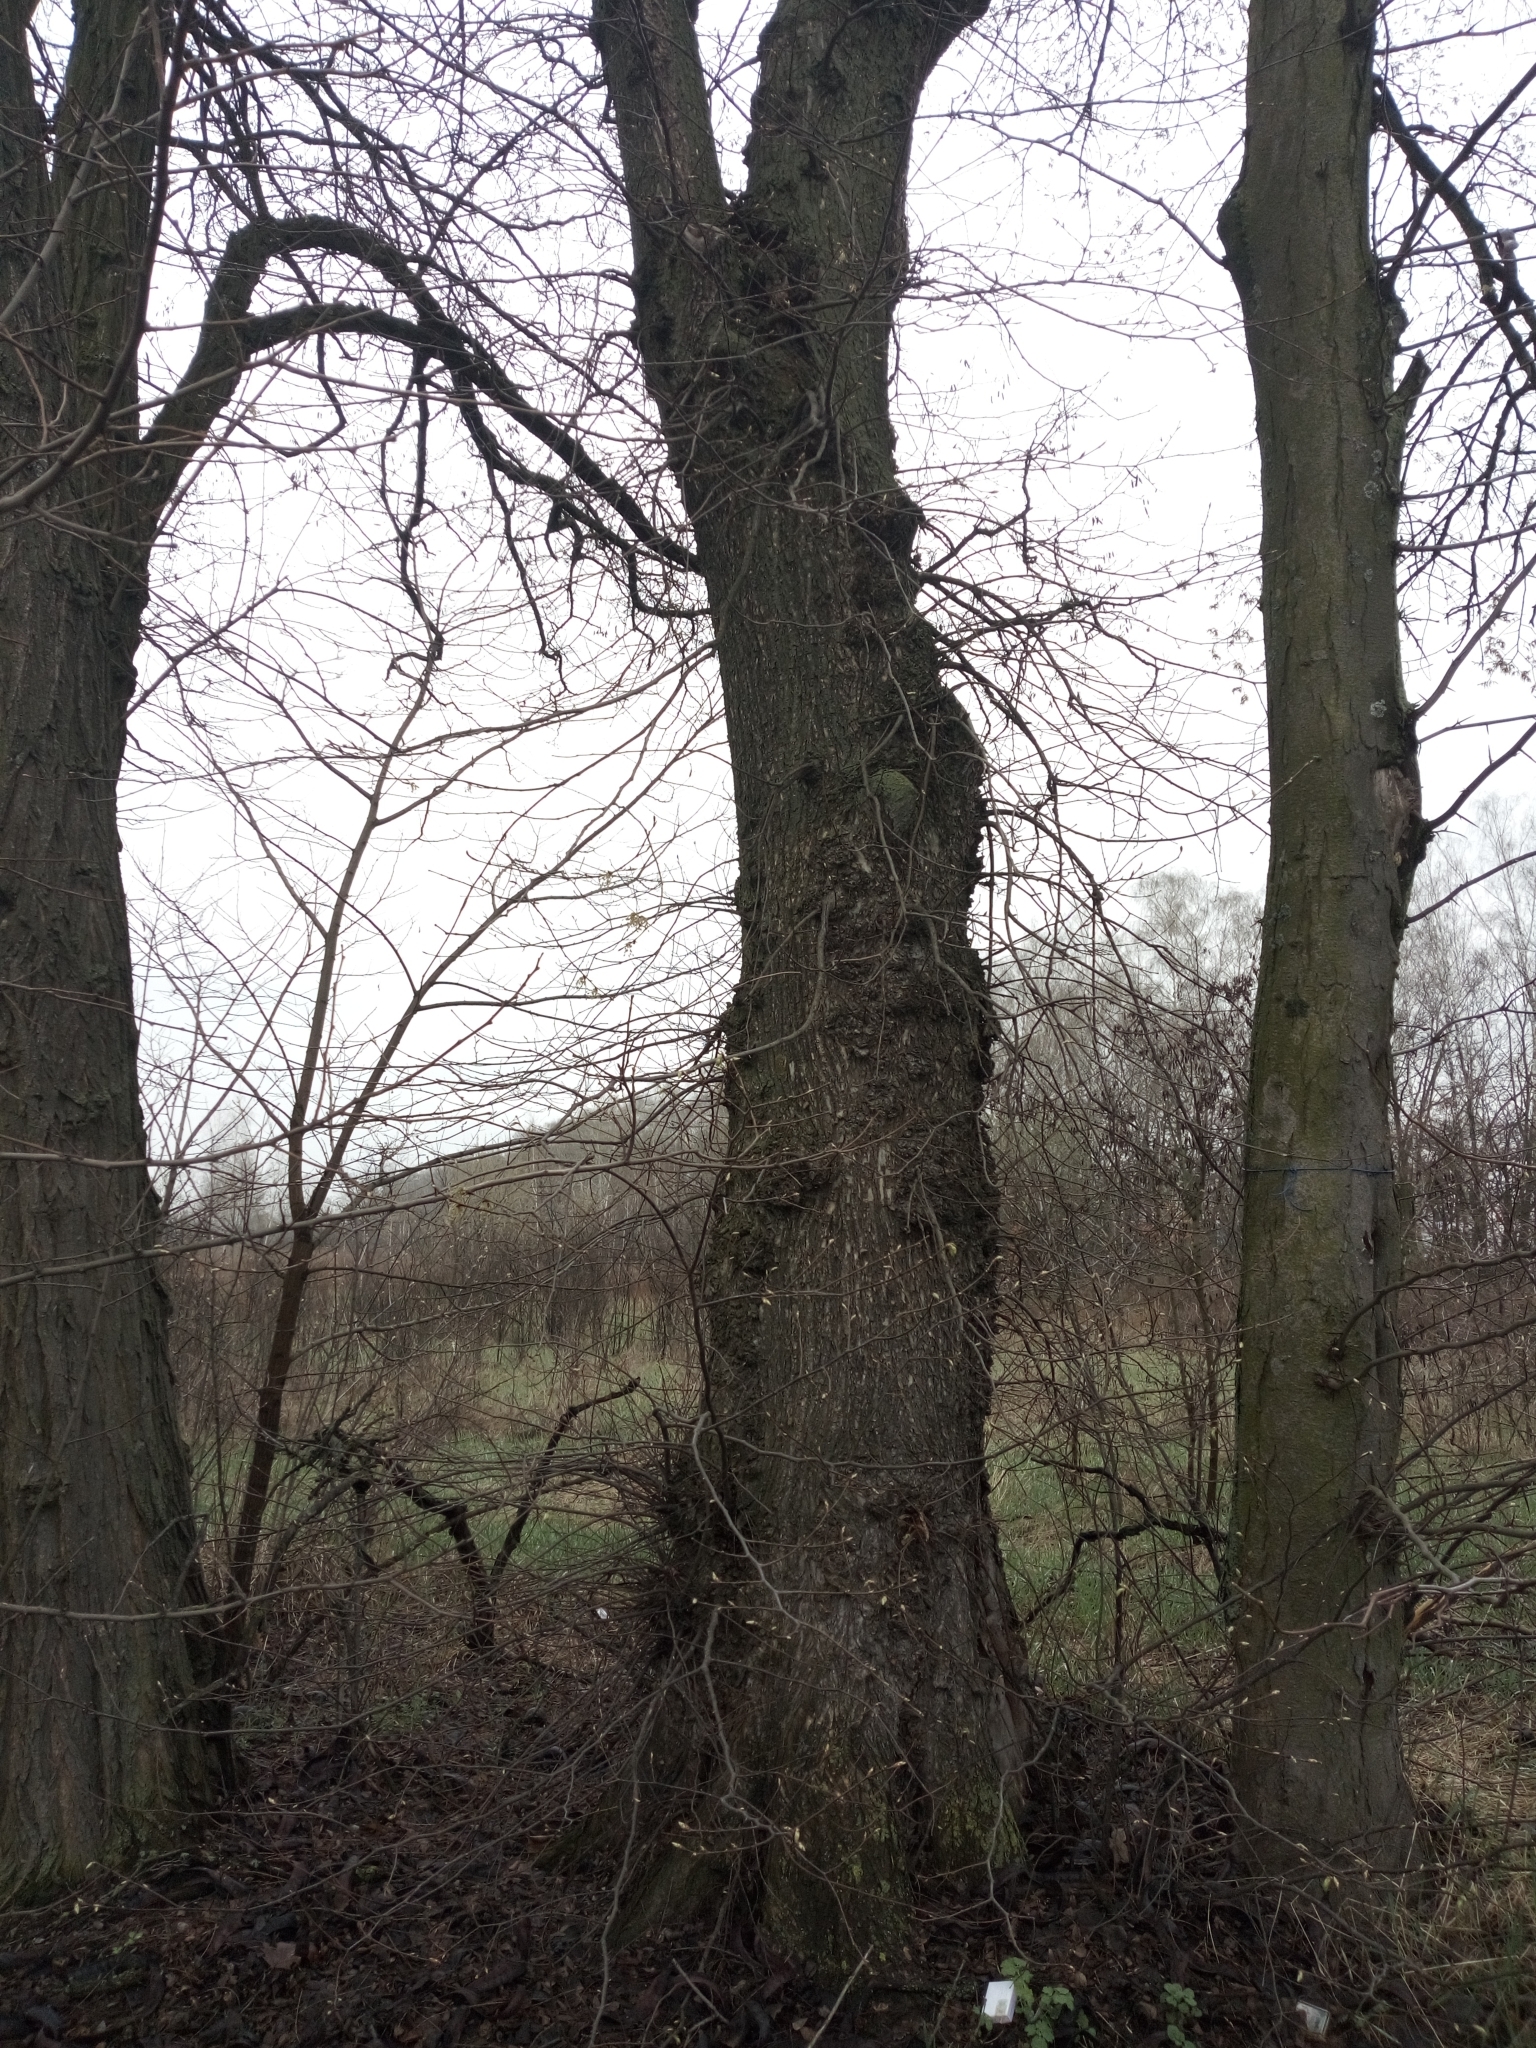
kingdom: Plantae
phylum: Tracheophyta
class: Magnoliopsida
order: Rosales
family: Ulmaceae
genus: Ulmus
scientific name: Ulmus laevis
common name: European white-elm
